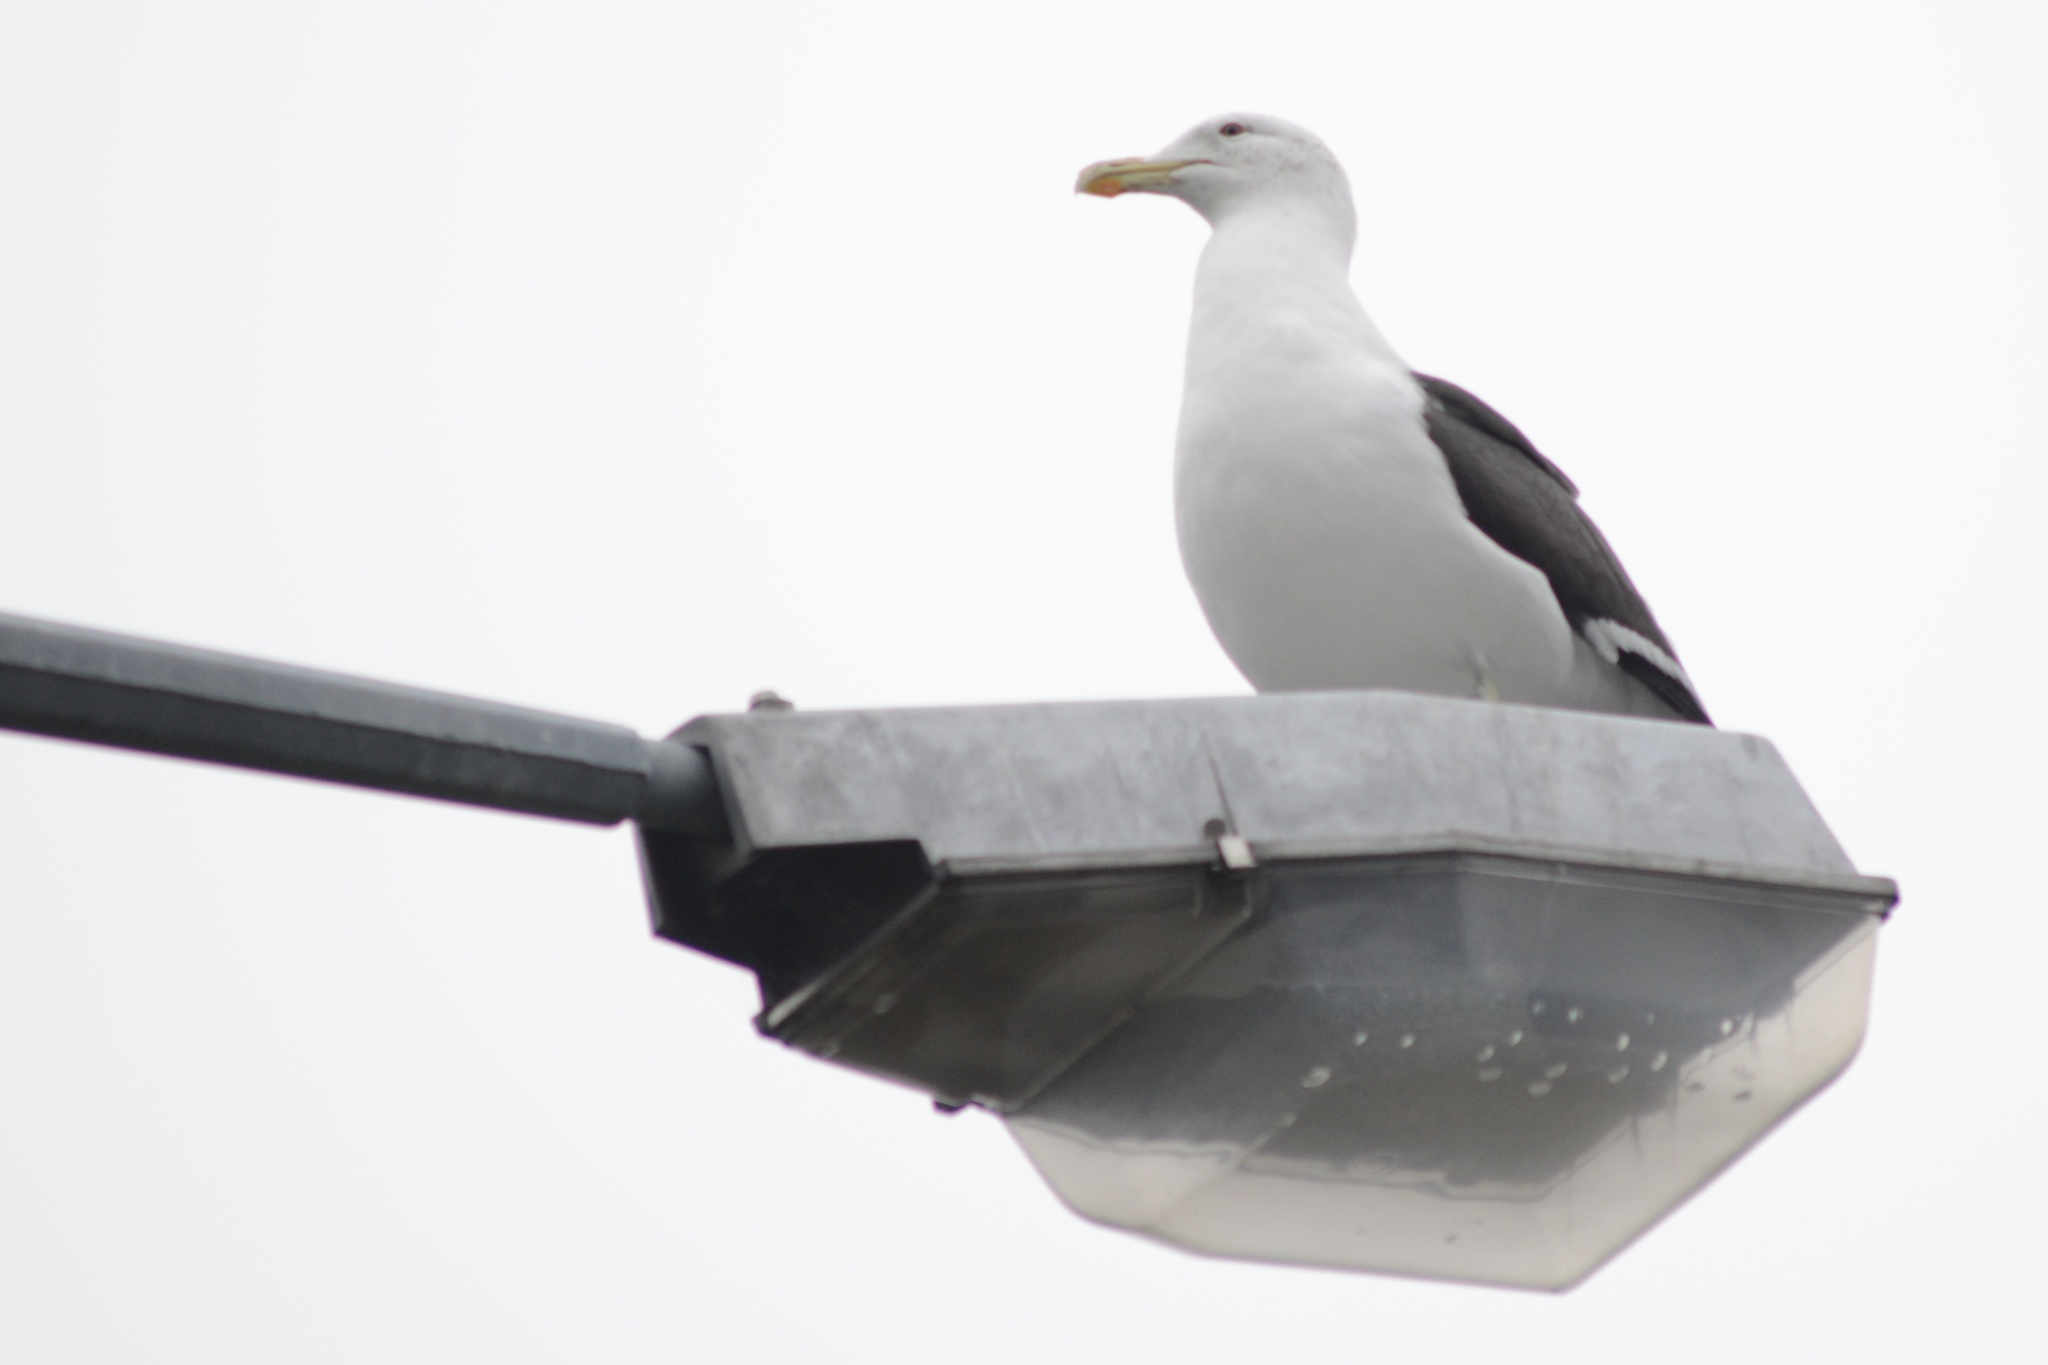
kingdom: Animalia
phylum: Chordata
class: Aves
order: Charadriiformes
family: Laridae
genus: Larus
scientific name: Larus dominicanus
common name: Kelp gull
